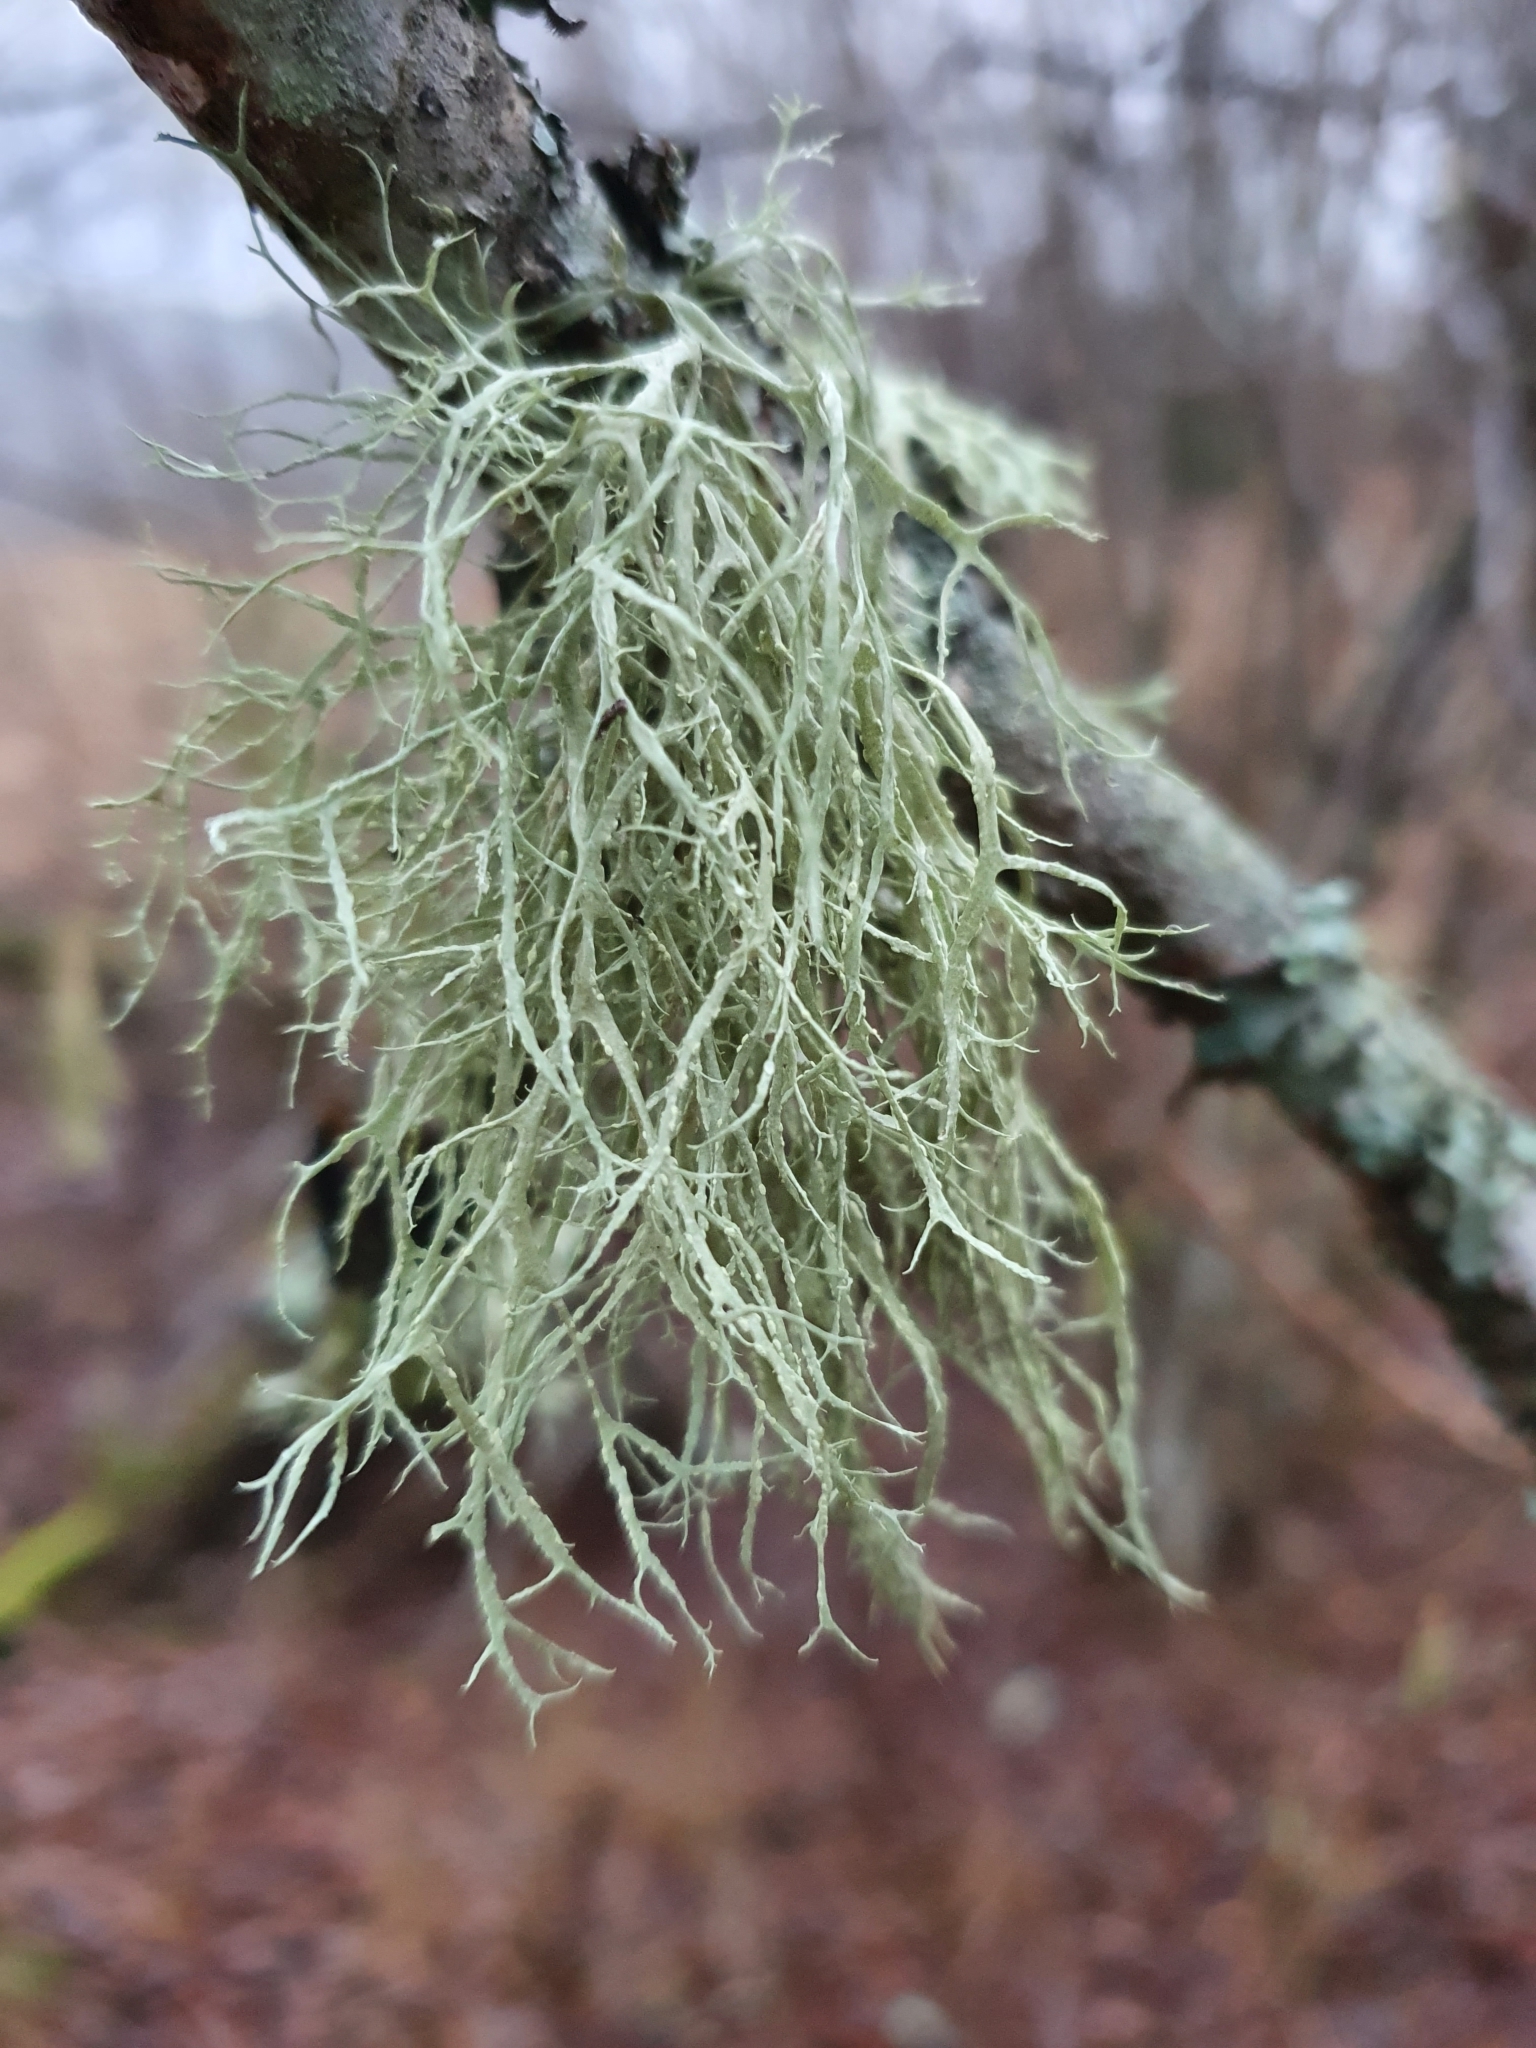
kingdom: Fungi
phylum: Ascomycota
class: Lecanoromycetes
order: Lecanorales
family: Ramalinaceae
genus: Ramalina
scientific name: Ramalina farinacea
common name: Farinose cartilage lichen
